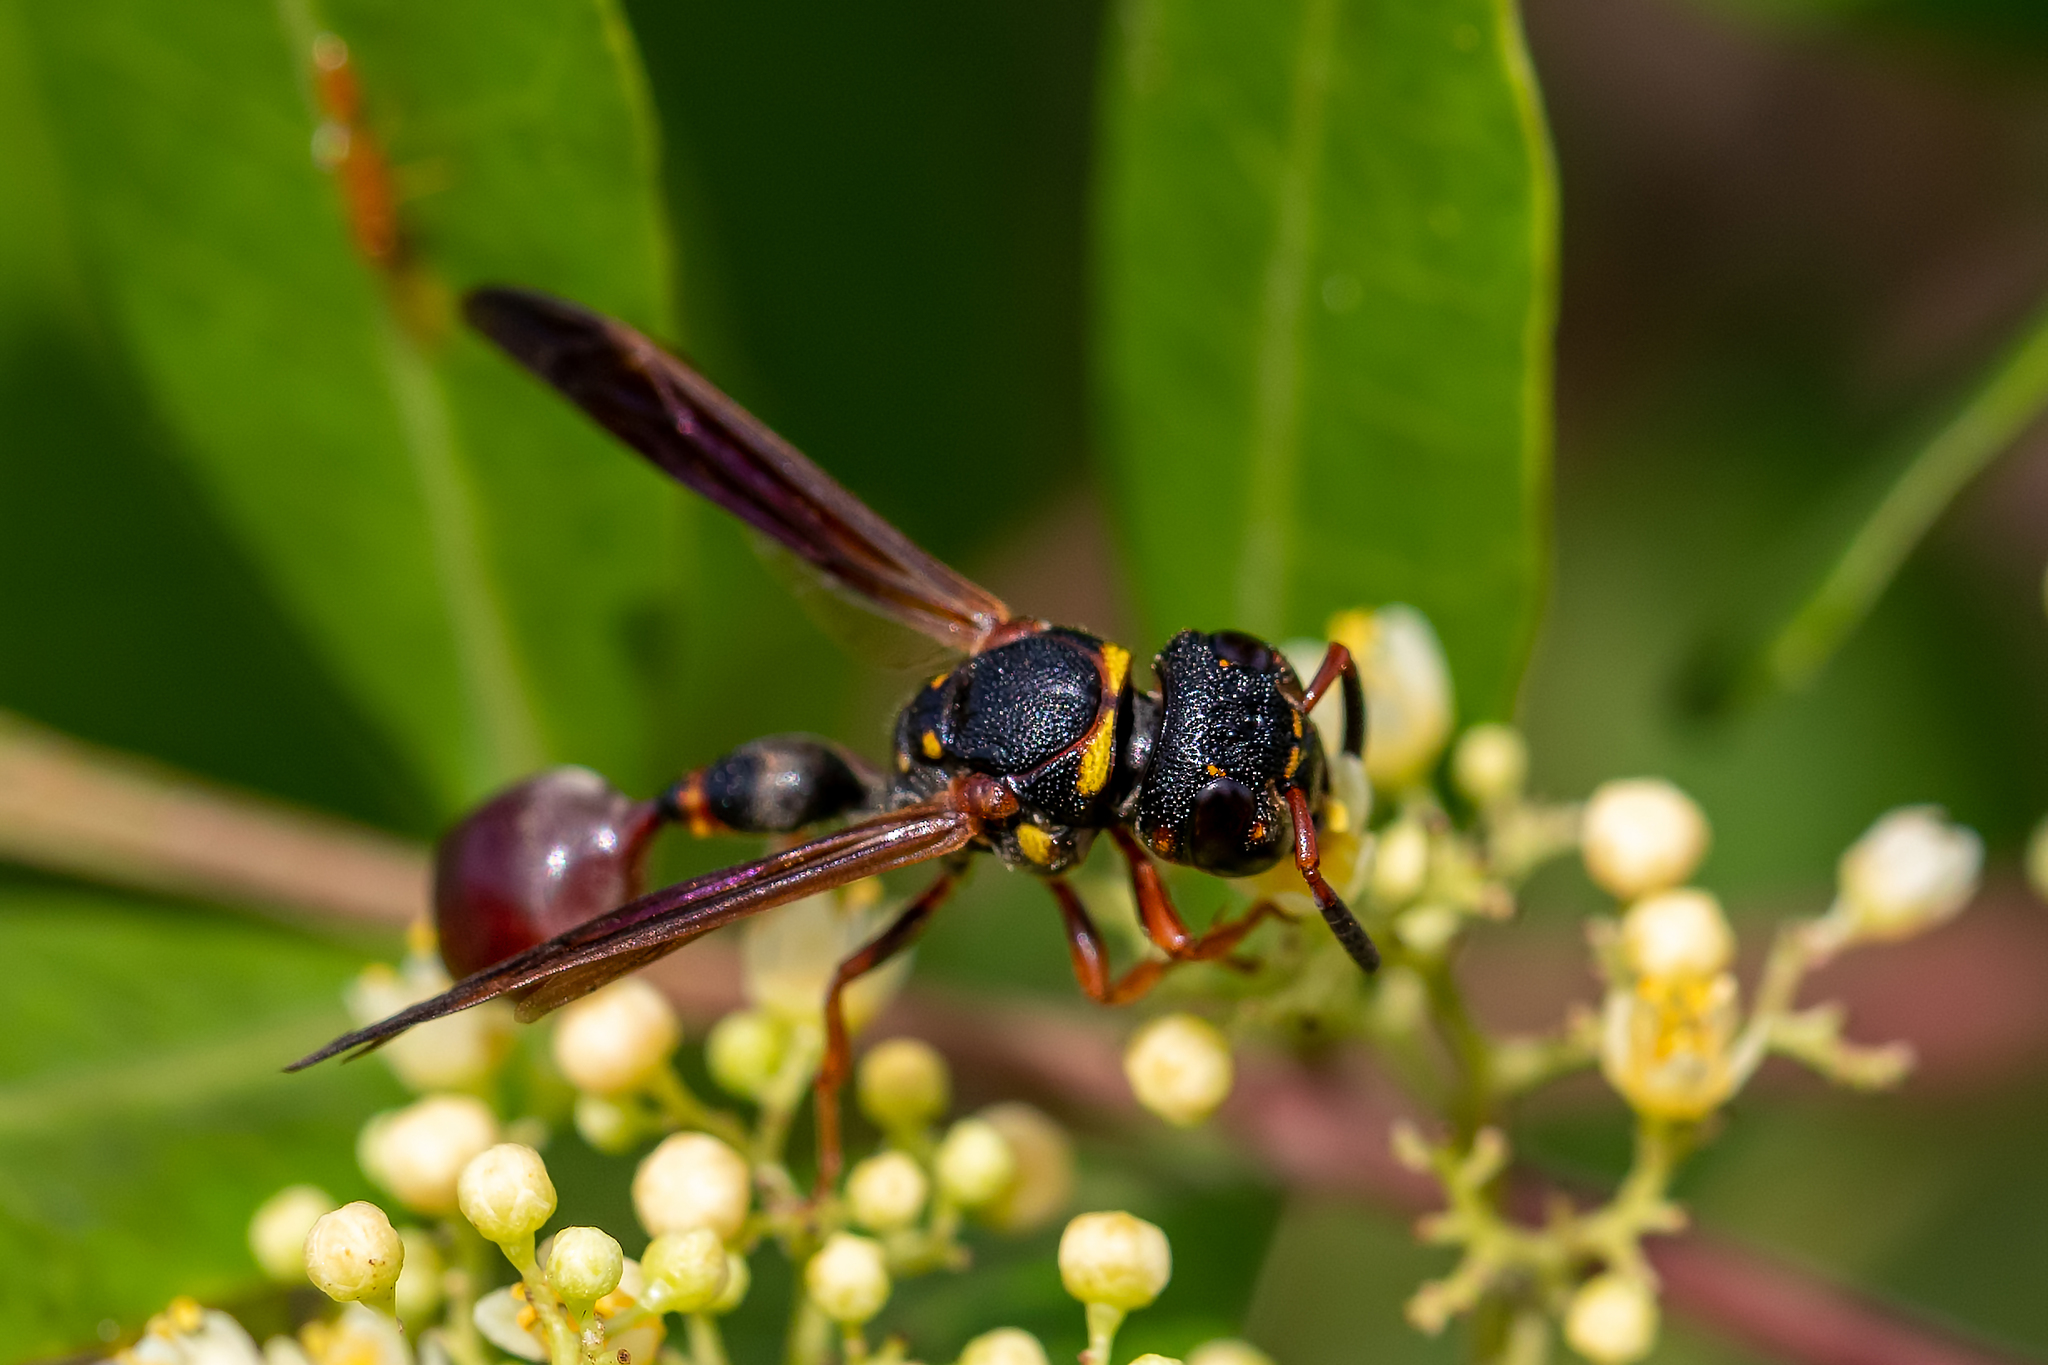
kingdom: Animalia
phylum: Arthropoda
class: Insecta
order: Hymenoptera
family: Eumenidae
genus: Zethus
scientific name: Zethus slossonae
